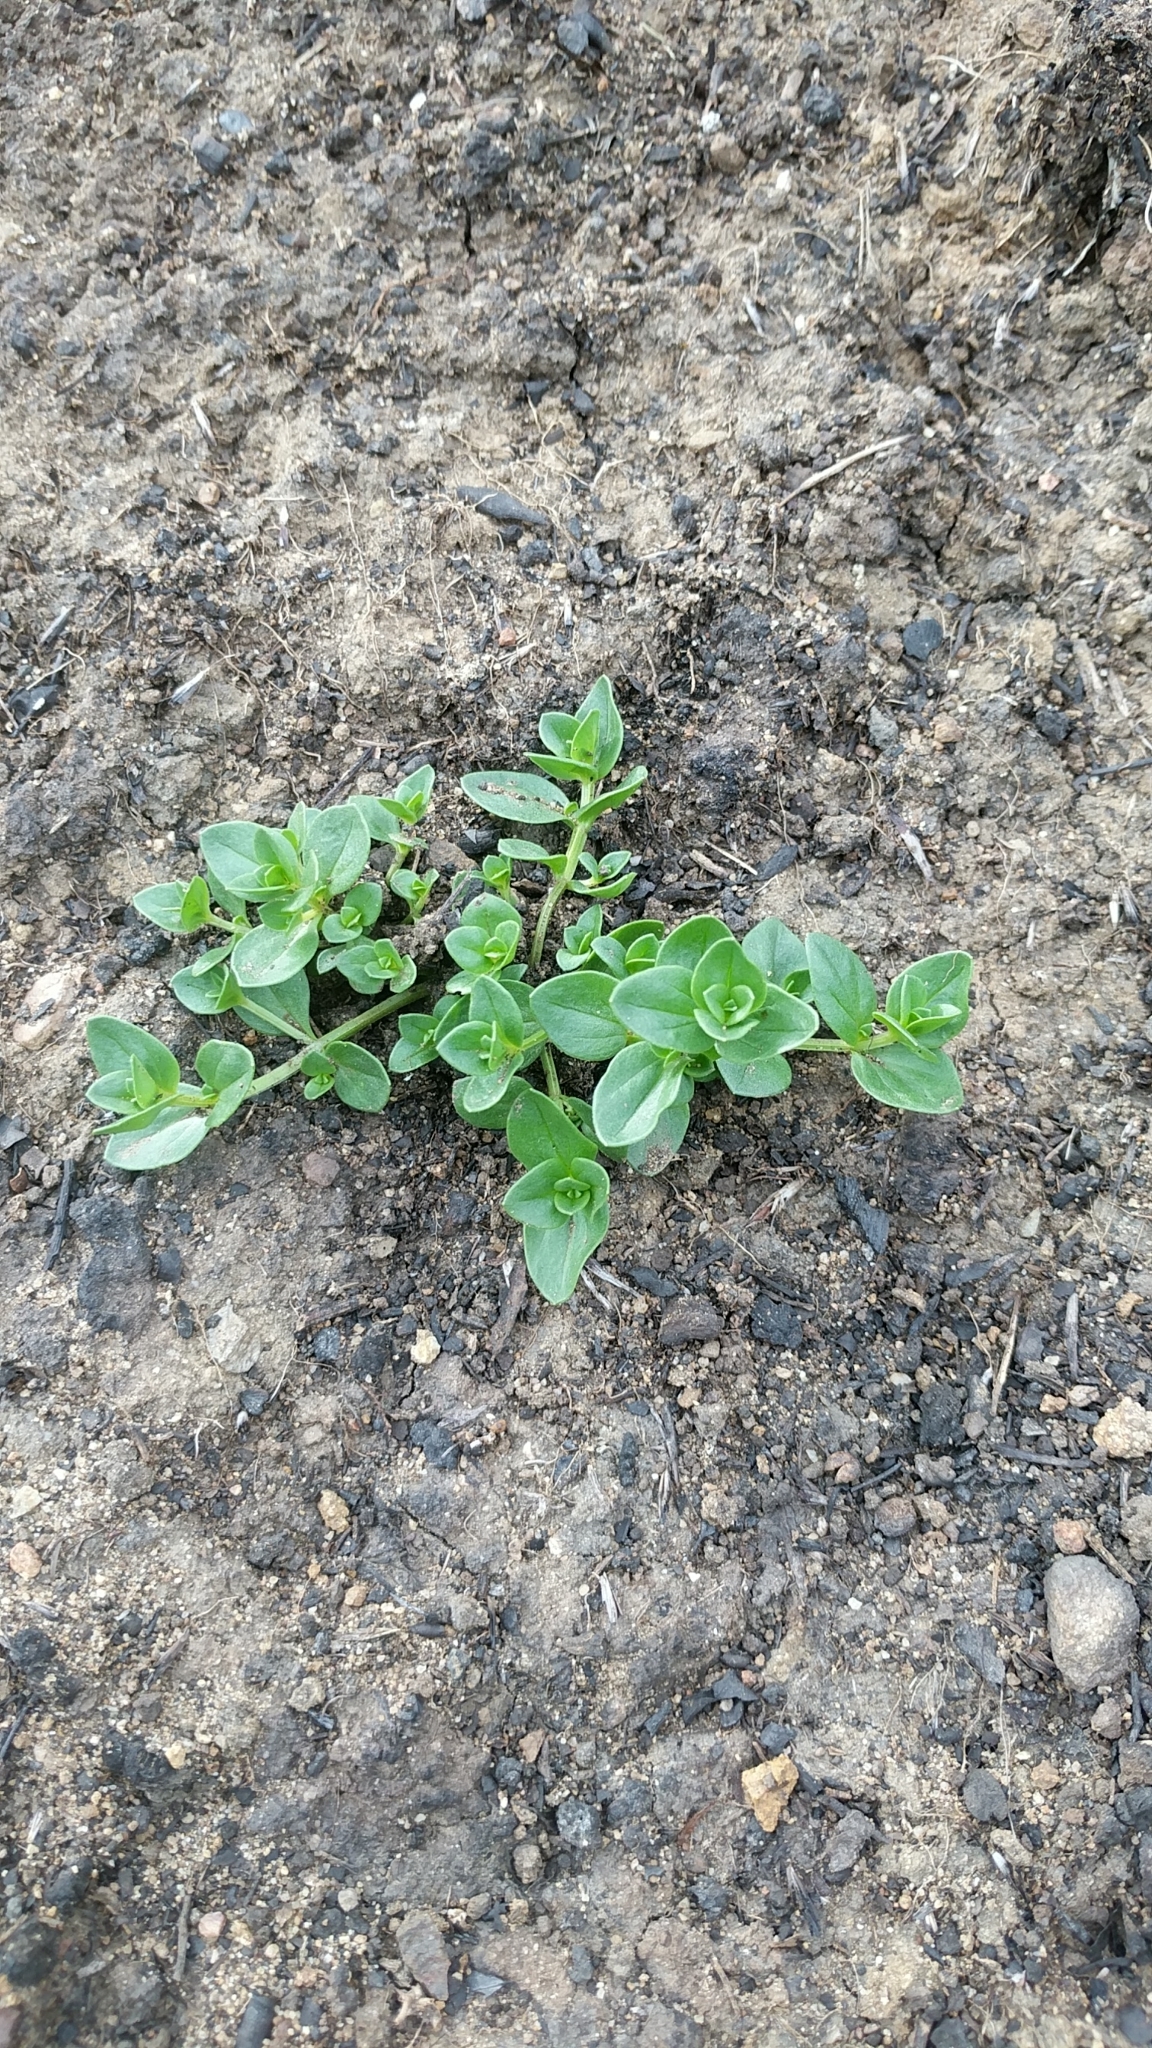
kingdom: Plantae
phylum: Tracheophyta
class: Magnoliopsida
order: Ericales
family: Primulaceae
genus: Lysimachia
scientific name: Lysimachia arvensis
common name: Scarlet pimpernel
